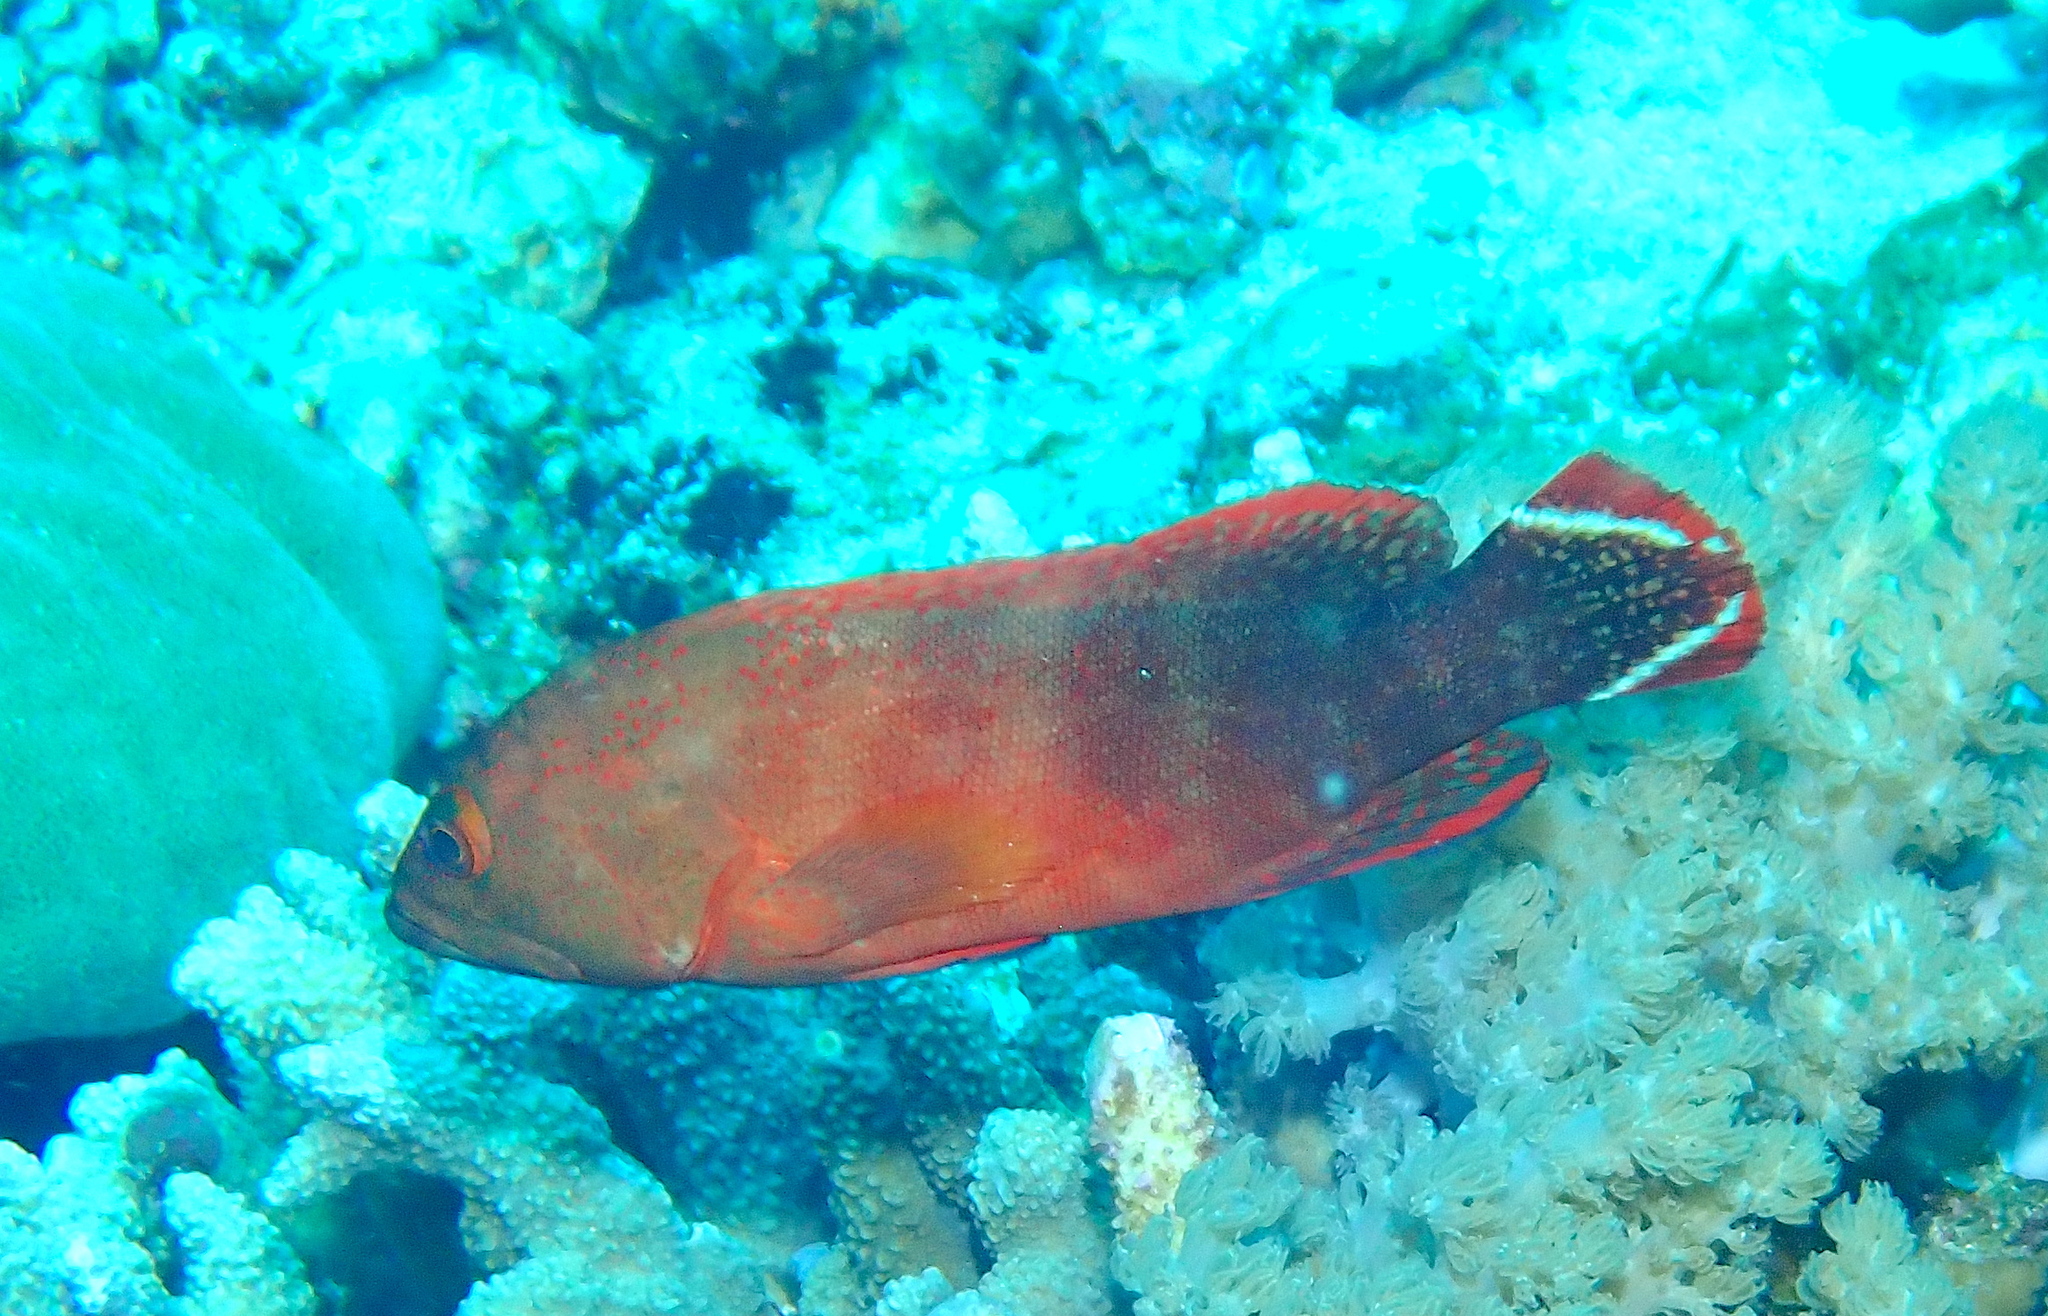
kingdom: Animalia
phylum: Chordata
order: Perciformes
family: Serranidae
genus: Cephalopholis
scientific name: Cephalopholis urodeta
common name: Darkfin hind
